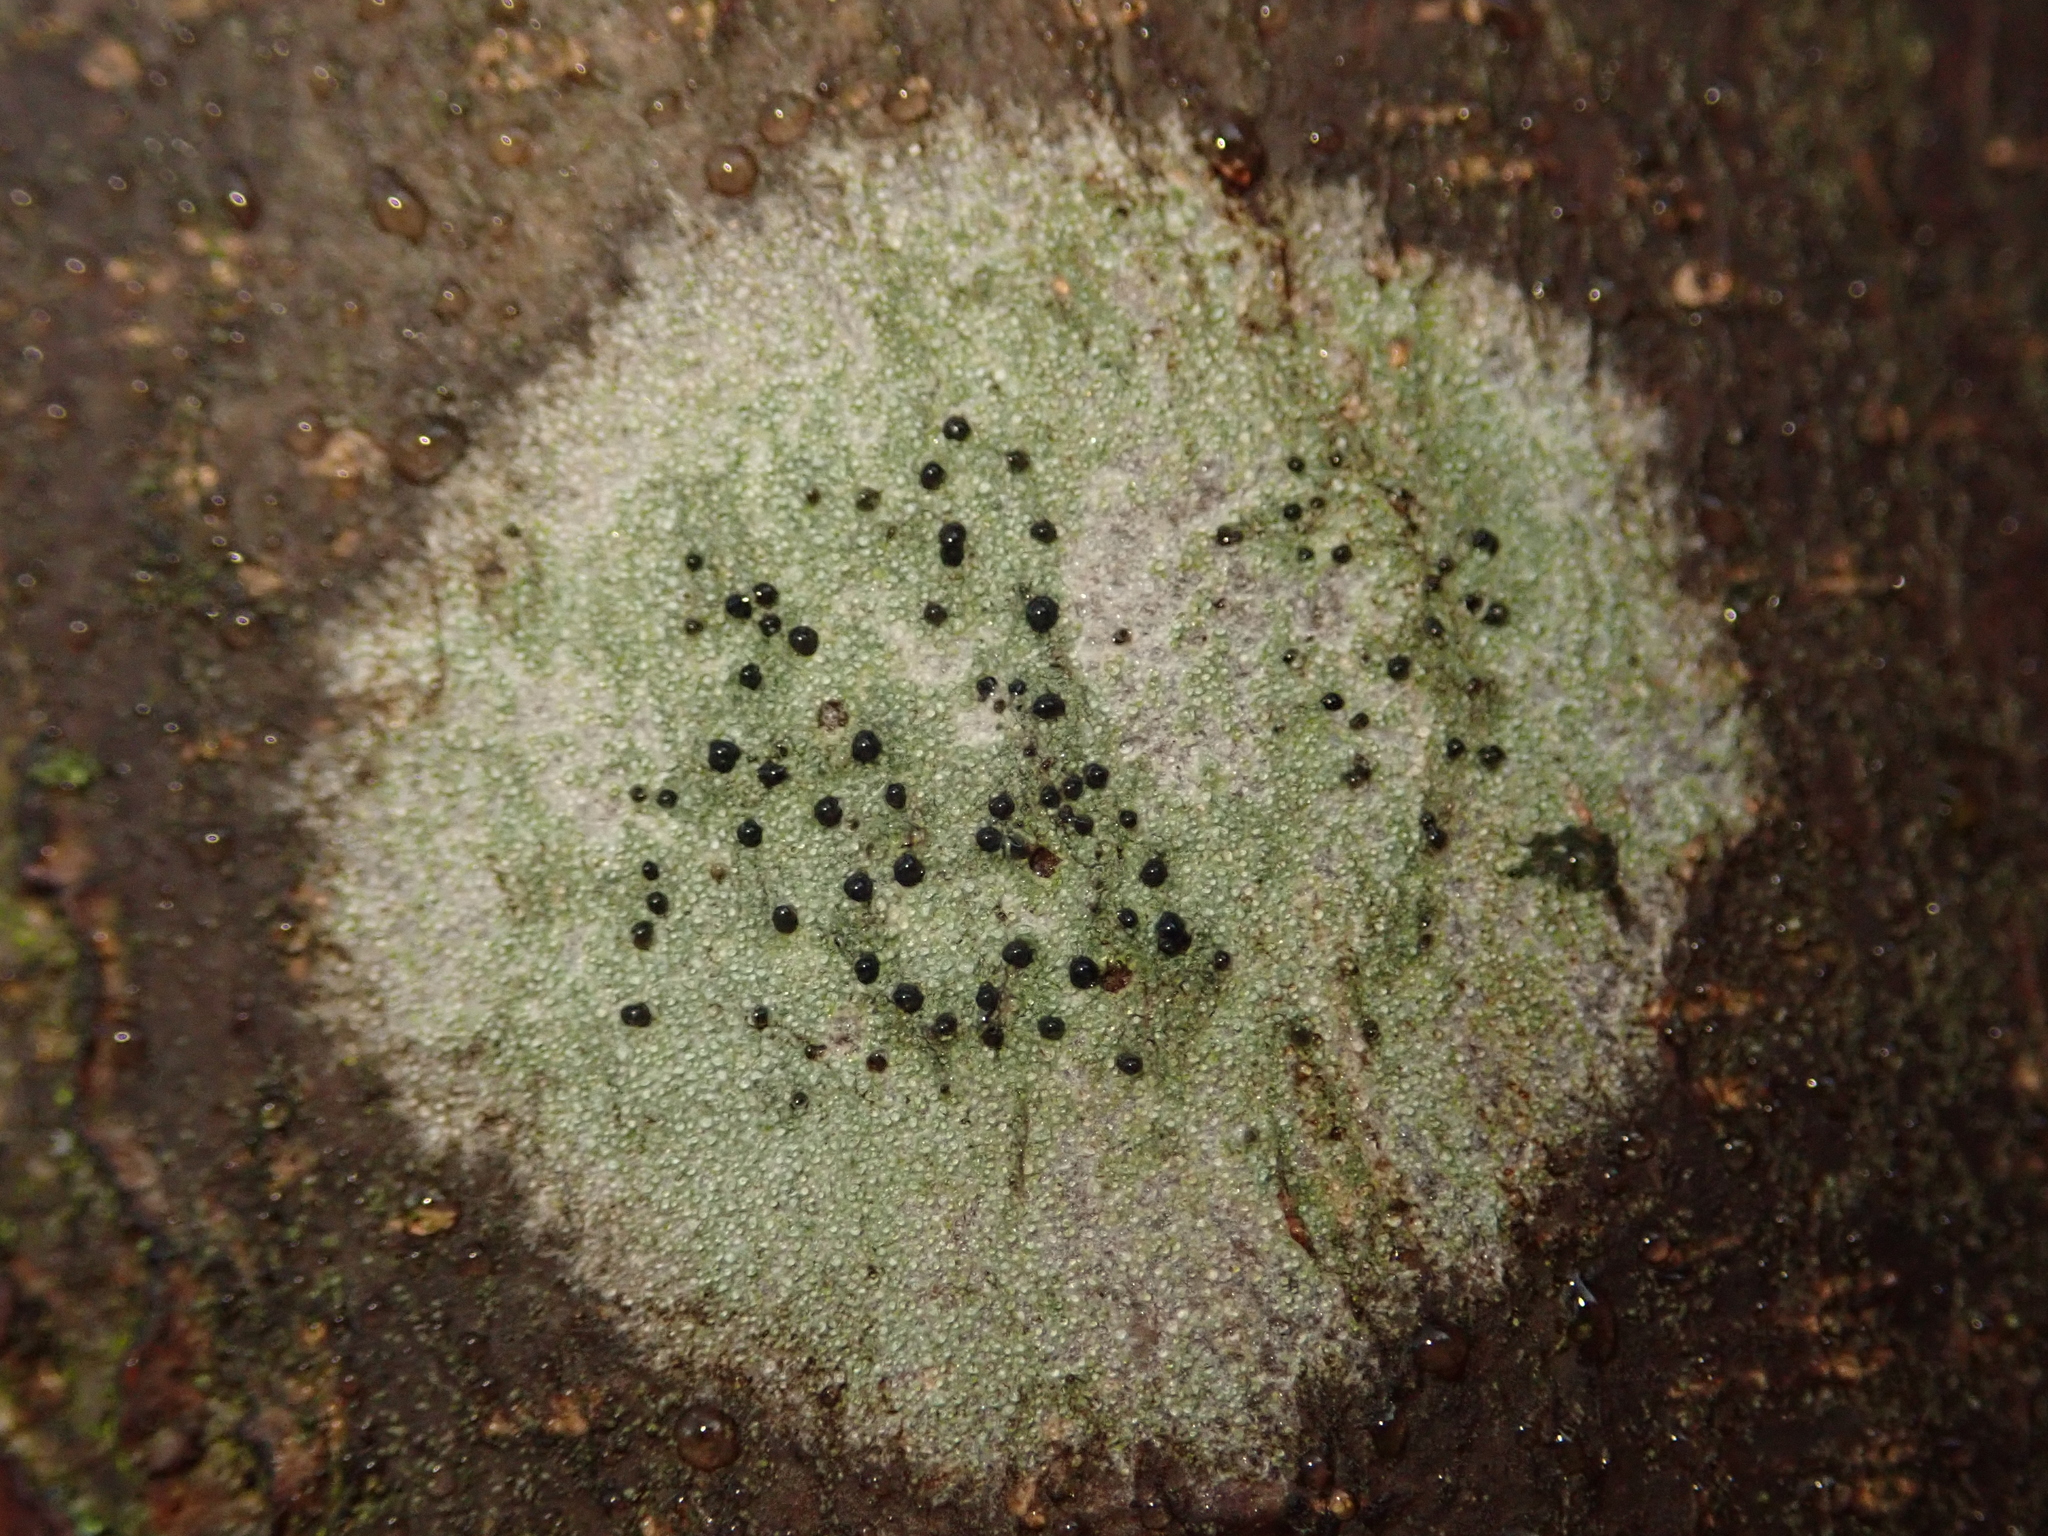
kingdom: Fungi
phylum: Ascomycota
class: Lecanoromycetes
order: Lecanorales
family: Lecanoraceae
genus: Lecidella
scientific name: Lecidella elaeochroma
